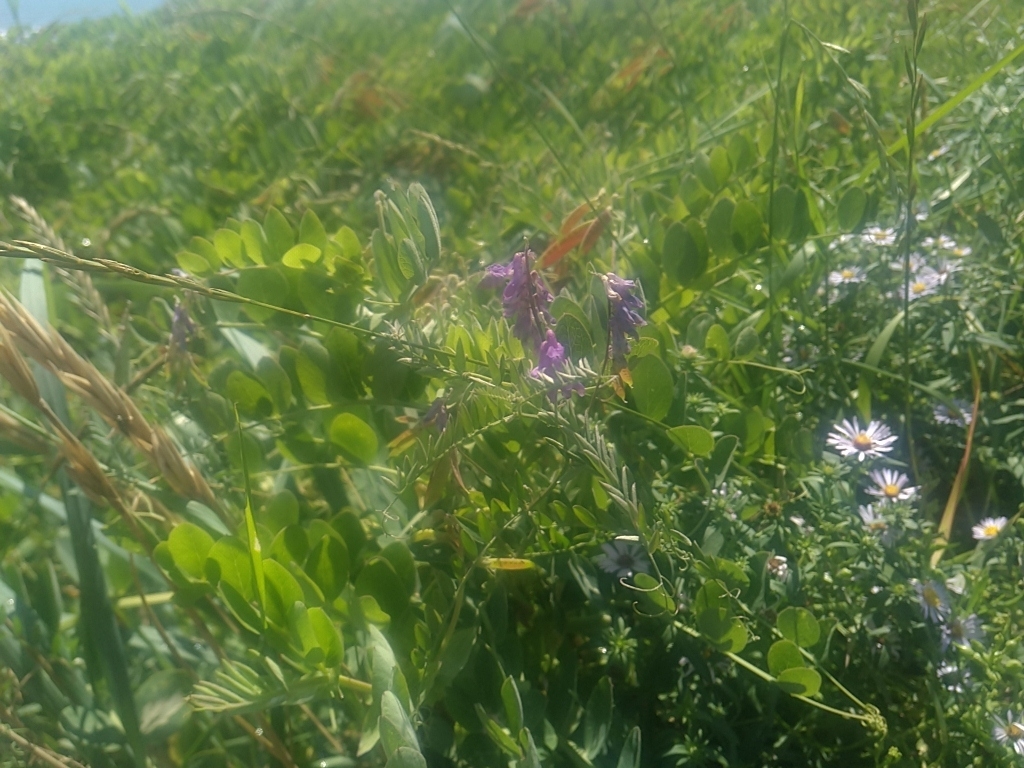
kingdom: Plantae
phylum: Tracheophyta
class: Magnoliopsida
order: Fabales
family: Fabaceae
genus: Lathyrus
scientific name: Lathyrus japonicus
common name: Sea pea
